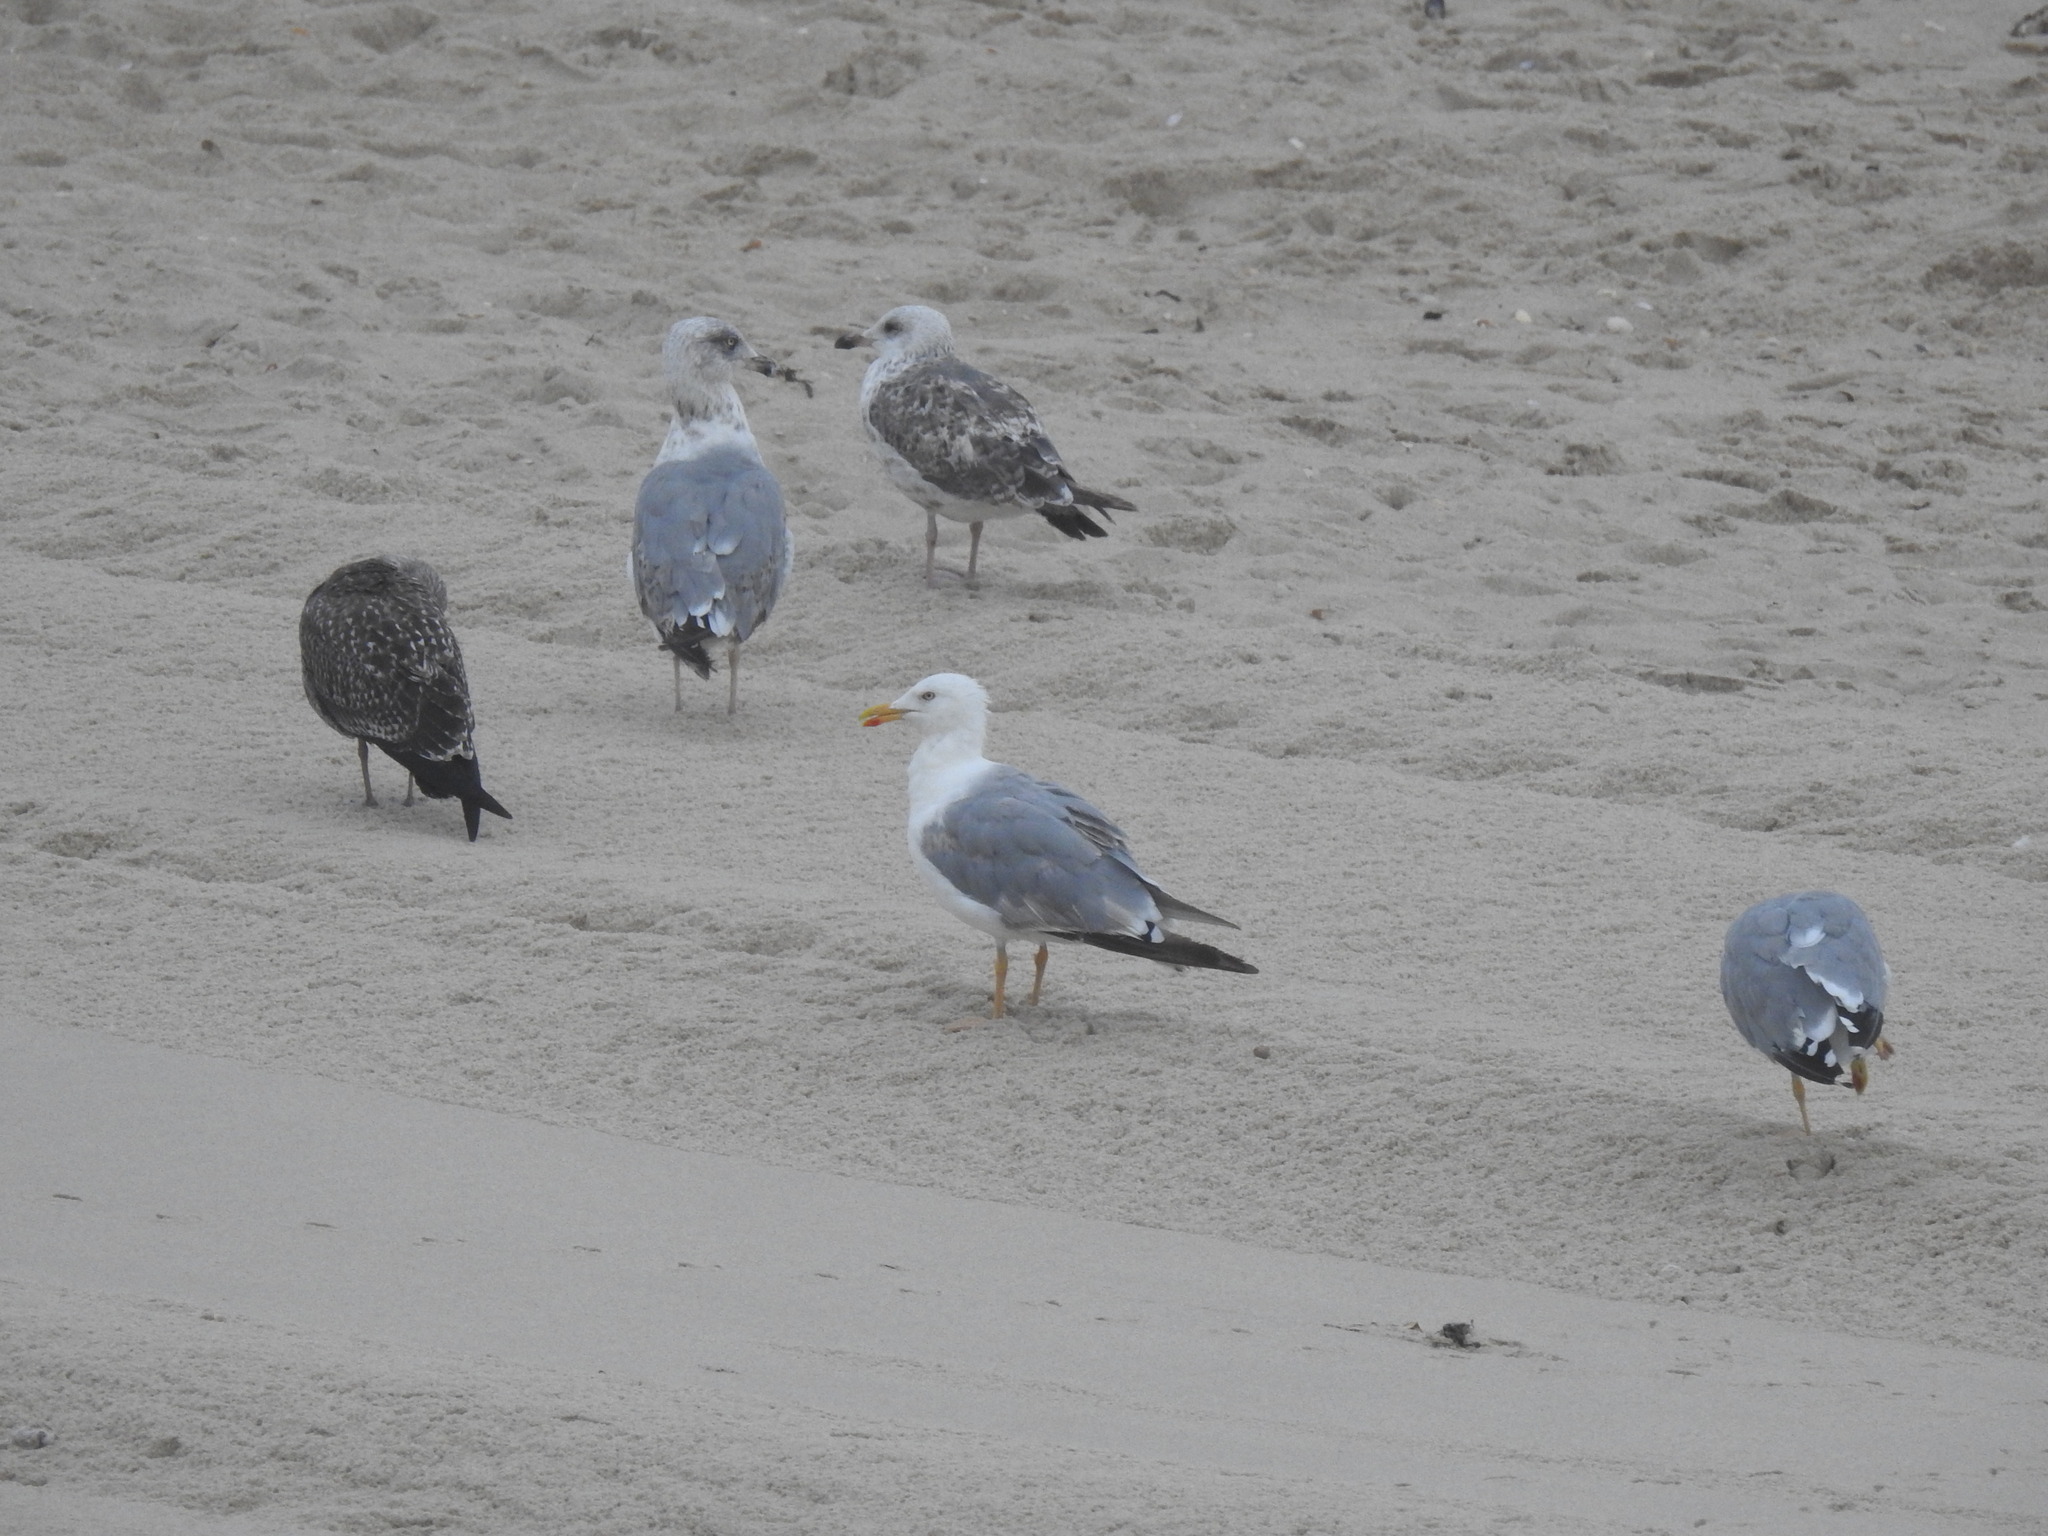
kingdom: Animalia
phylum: Chordata
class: Aves
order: Charadriiformes
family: Laridae
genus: Larus
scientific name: Larus michahellis
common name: Yellow-legged gull
